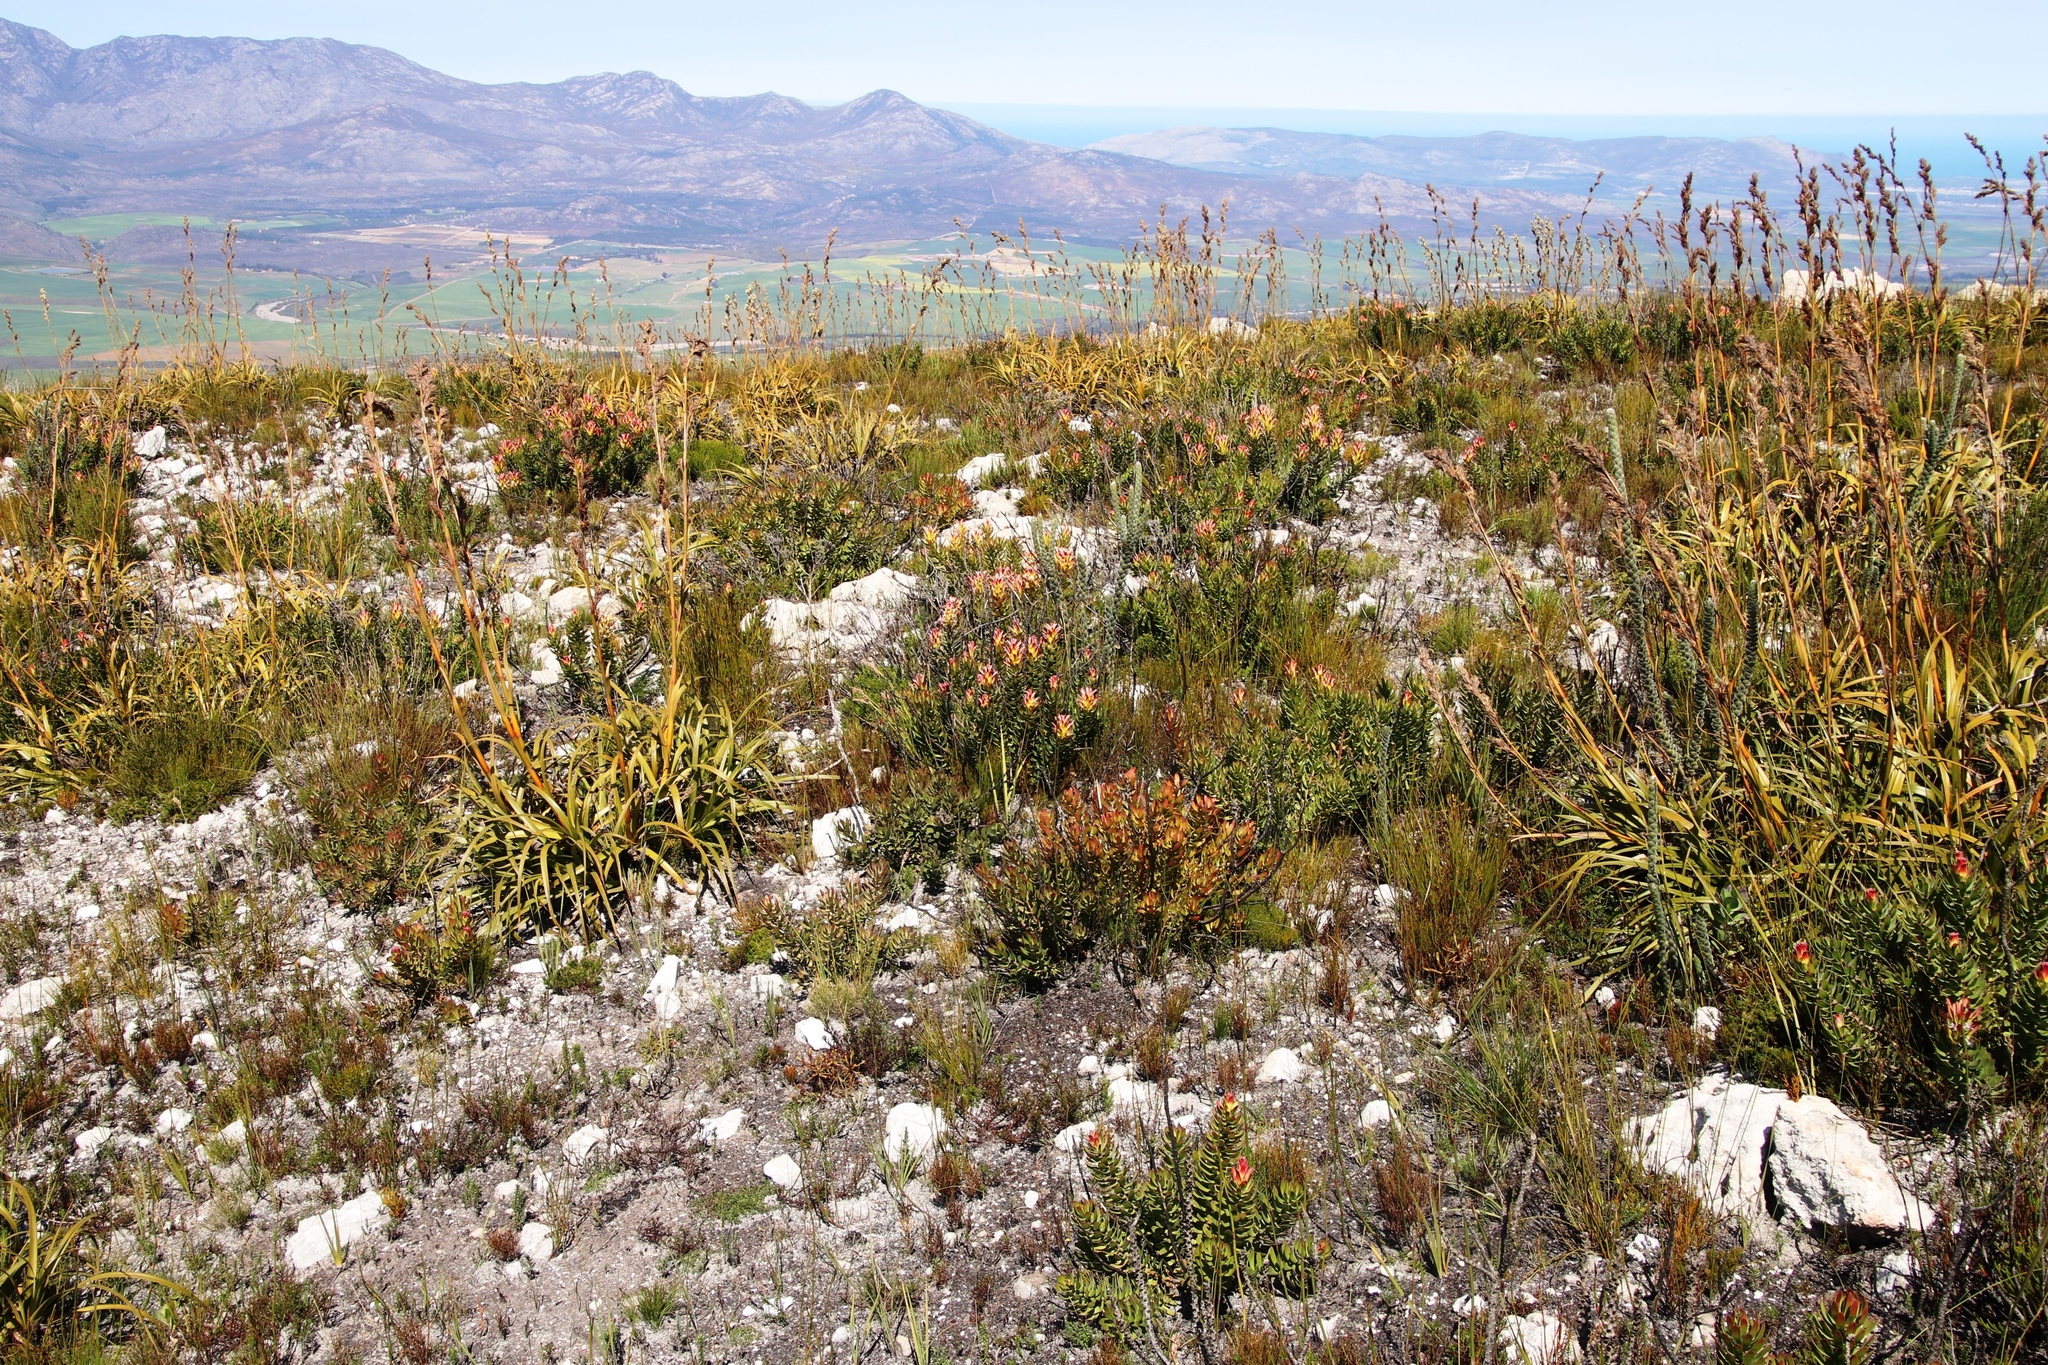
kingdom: Plantae
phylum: Tracheophyta
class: Magnoliopsida
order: Proteales
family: Proteaceae
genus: Mimetes
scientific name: Mimetes cucullatus
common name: Common pagoda
